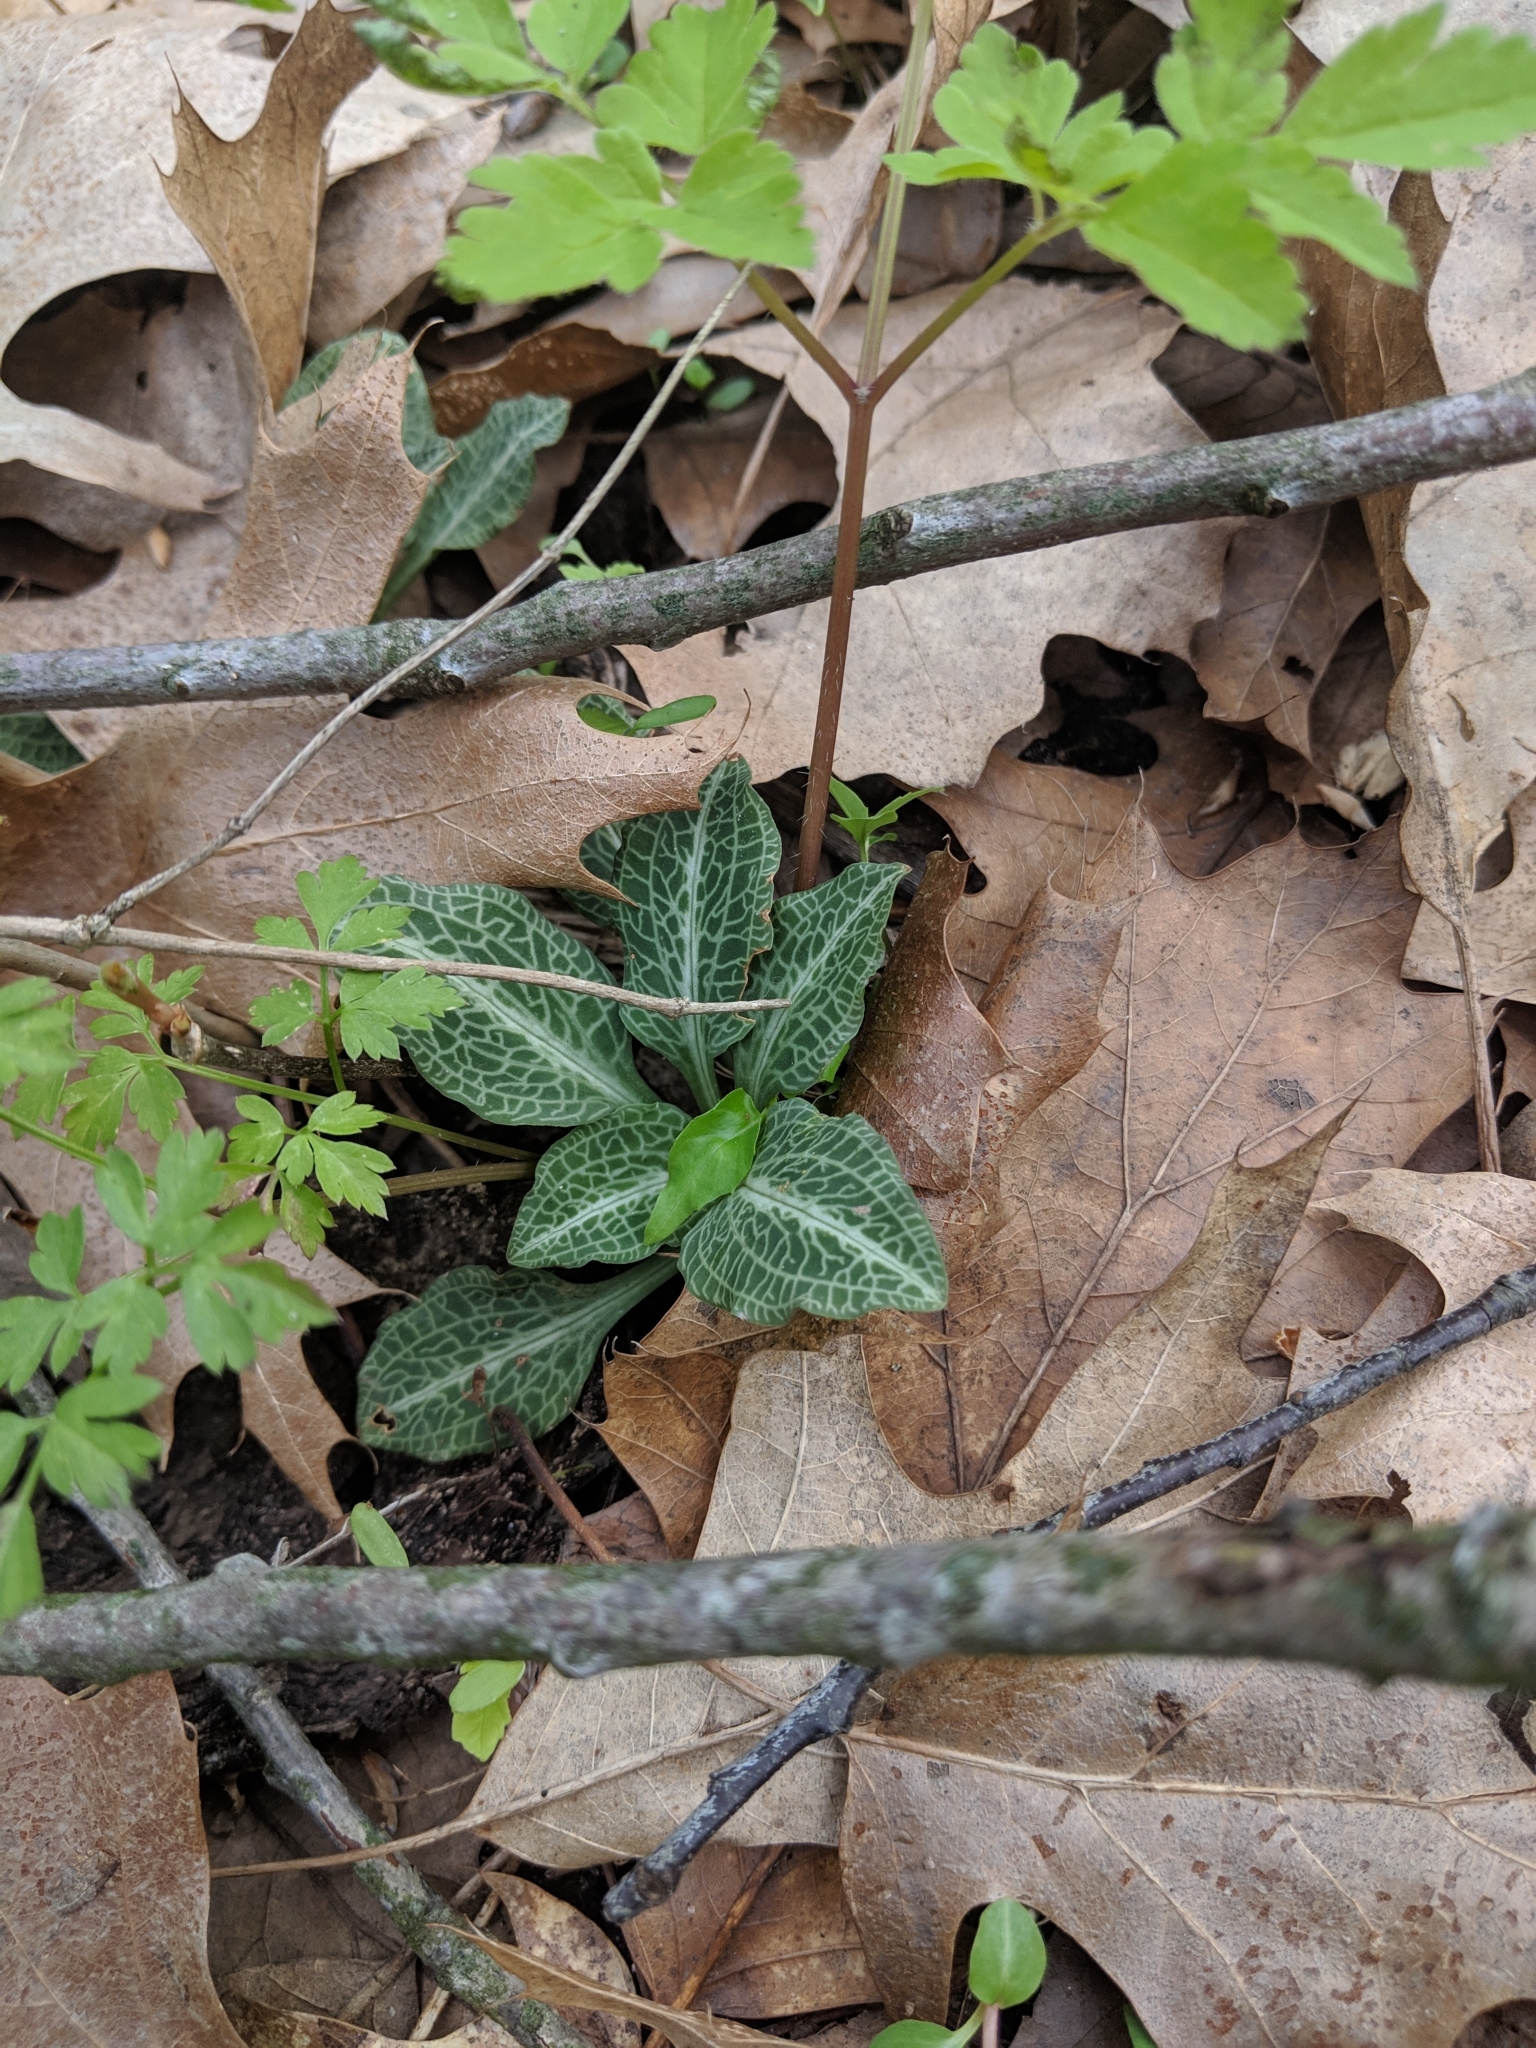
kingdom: Plantae
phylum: Tracheophyta
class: Liliopsida
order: Asparagales
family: Orchidaceae
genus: Goodyera
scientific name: Goodyera pubescens
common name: Downy rattlesnake-plantain
